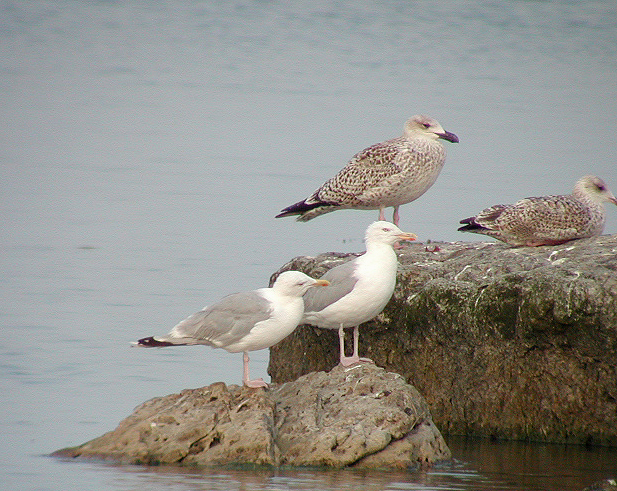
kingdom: Animalia
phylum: Chordata
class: Aves
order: Charadriiformes
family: Laridae
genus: Larus
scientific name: Larus argentatus
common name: Herring gull
